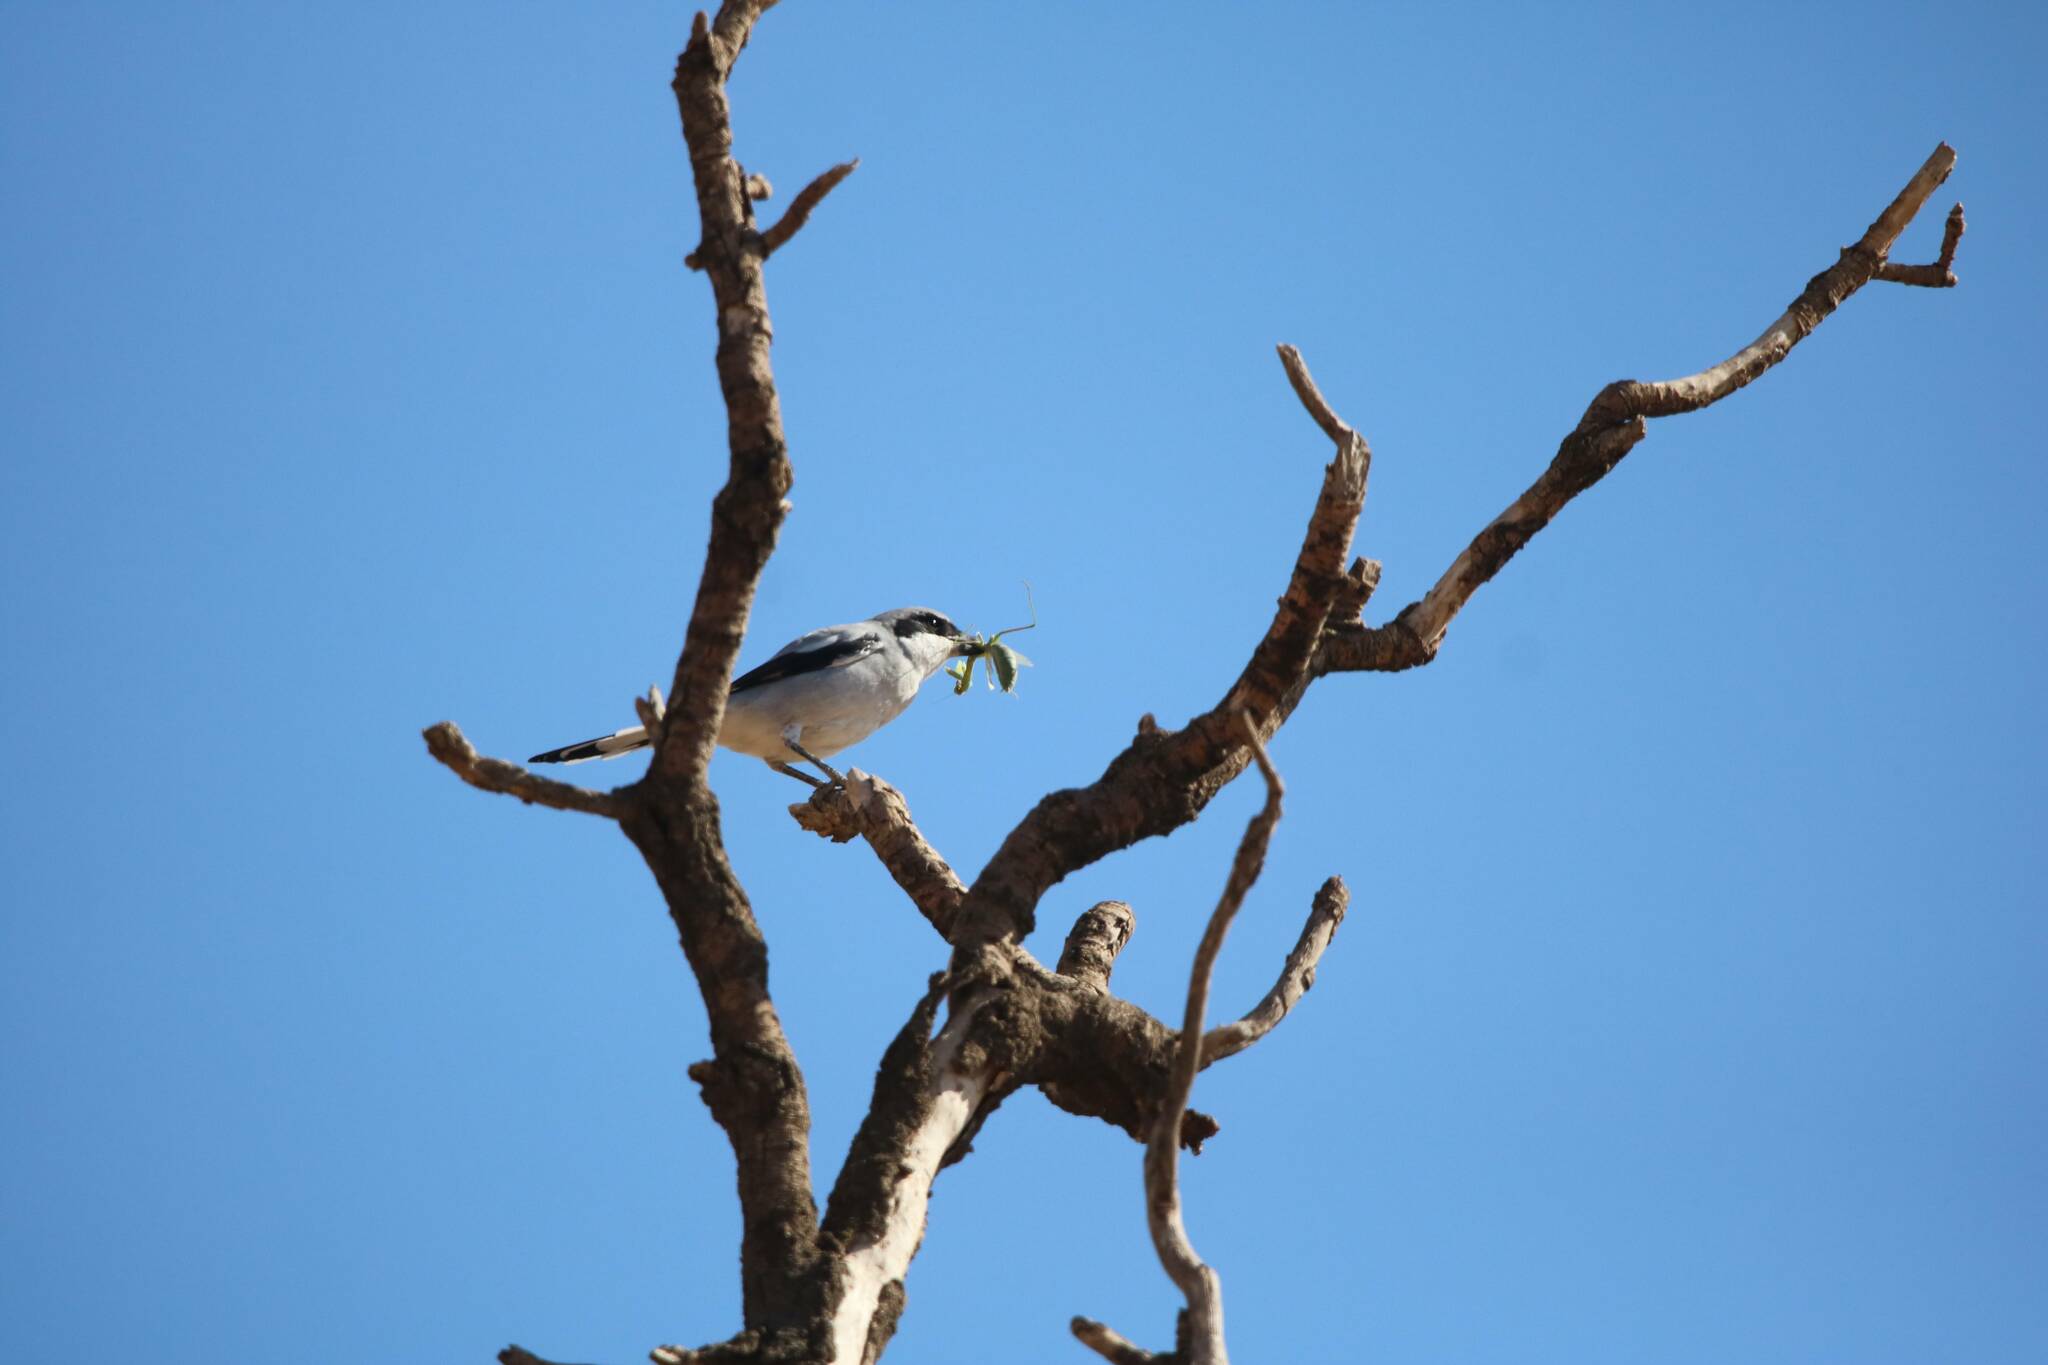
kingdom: Animalia
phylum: Chordata
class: Aves
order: Passeriformes
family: Laniidae
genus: Lanius
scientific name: Lanius excubitor
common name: Great grey shrike
